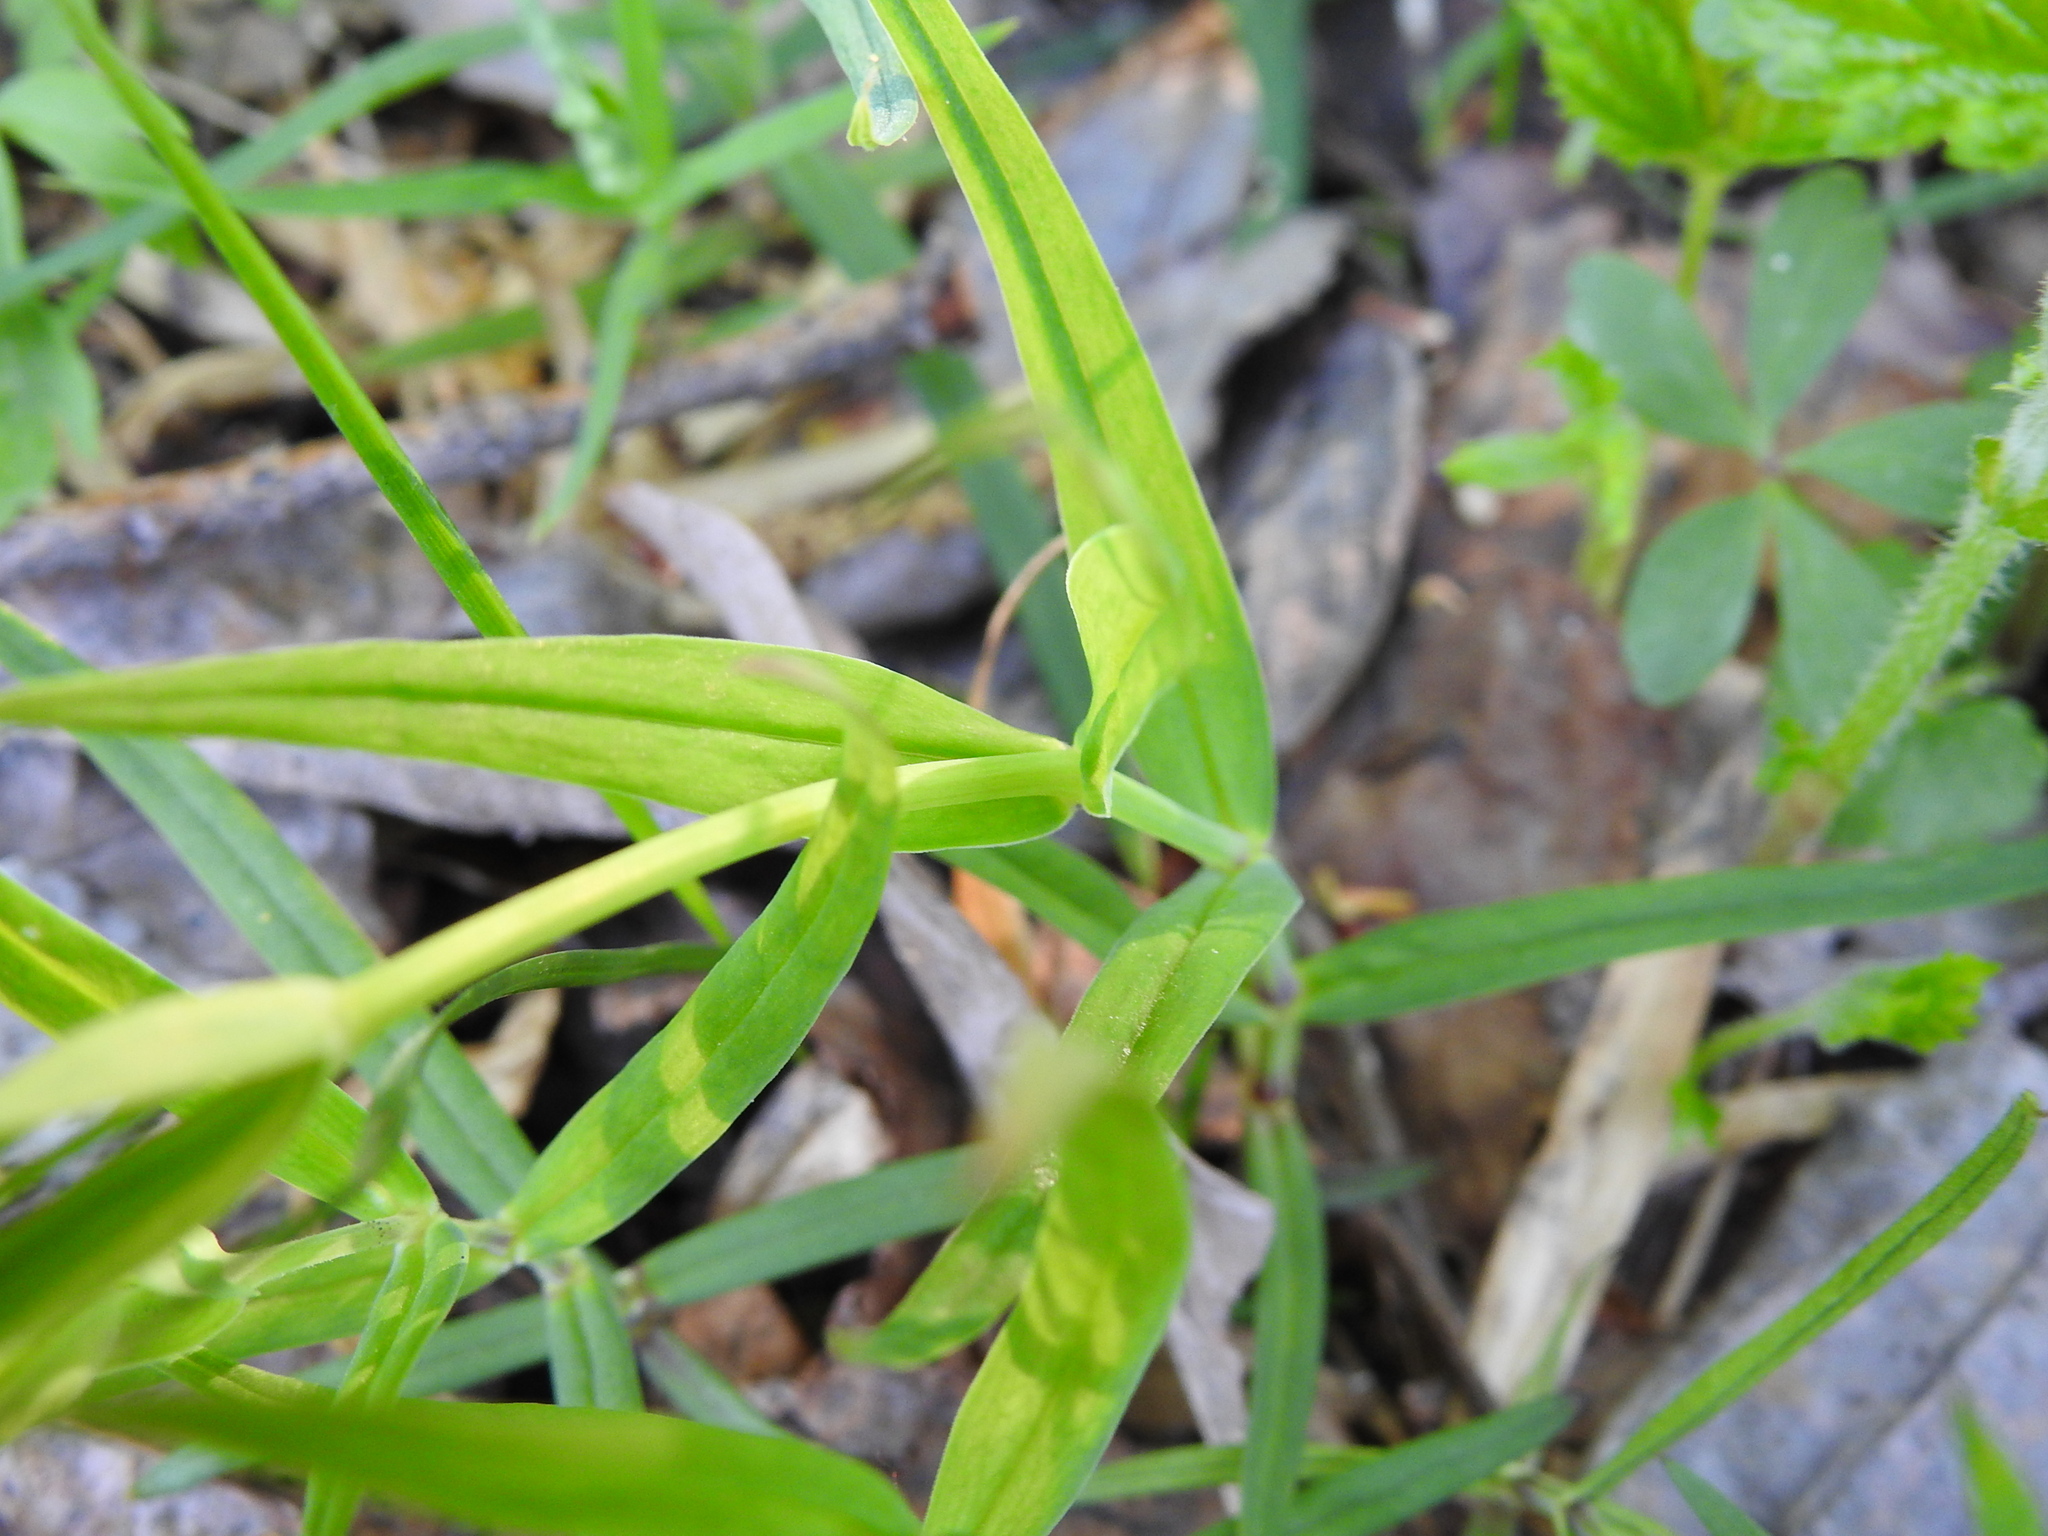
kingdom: Plantae
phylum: Tracheophyta
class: Magnoliopsida
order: Caryophyllales
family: Caryophyllaceae
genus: Rabelera
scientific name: Rabelera holostea
